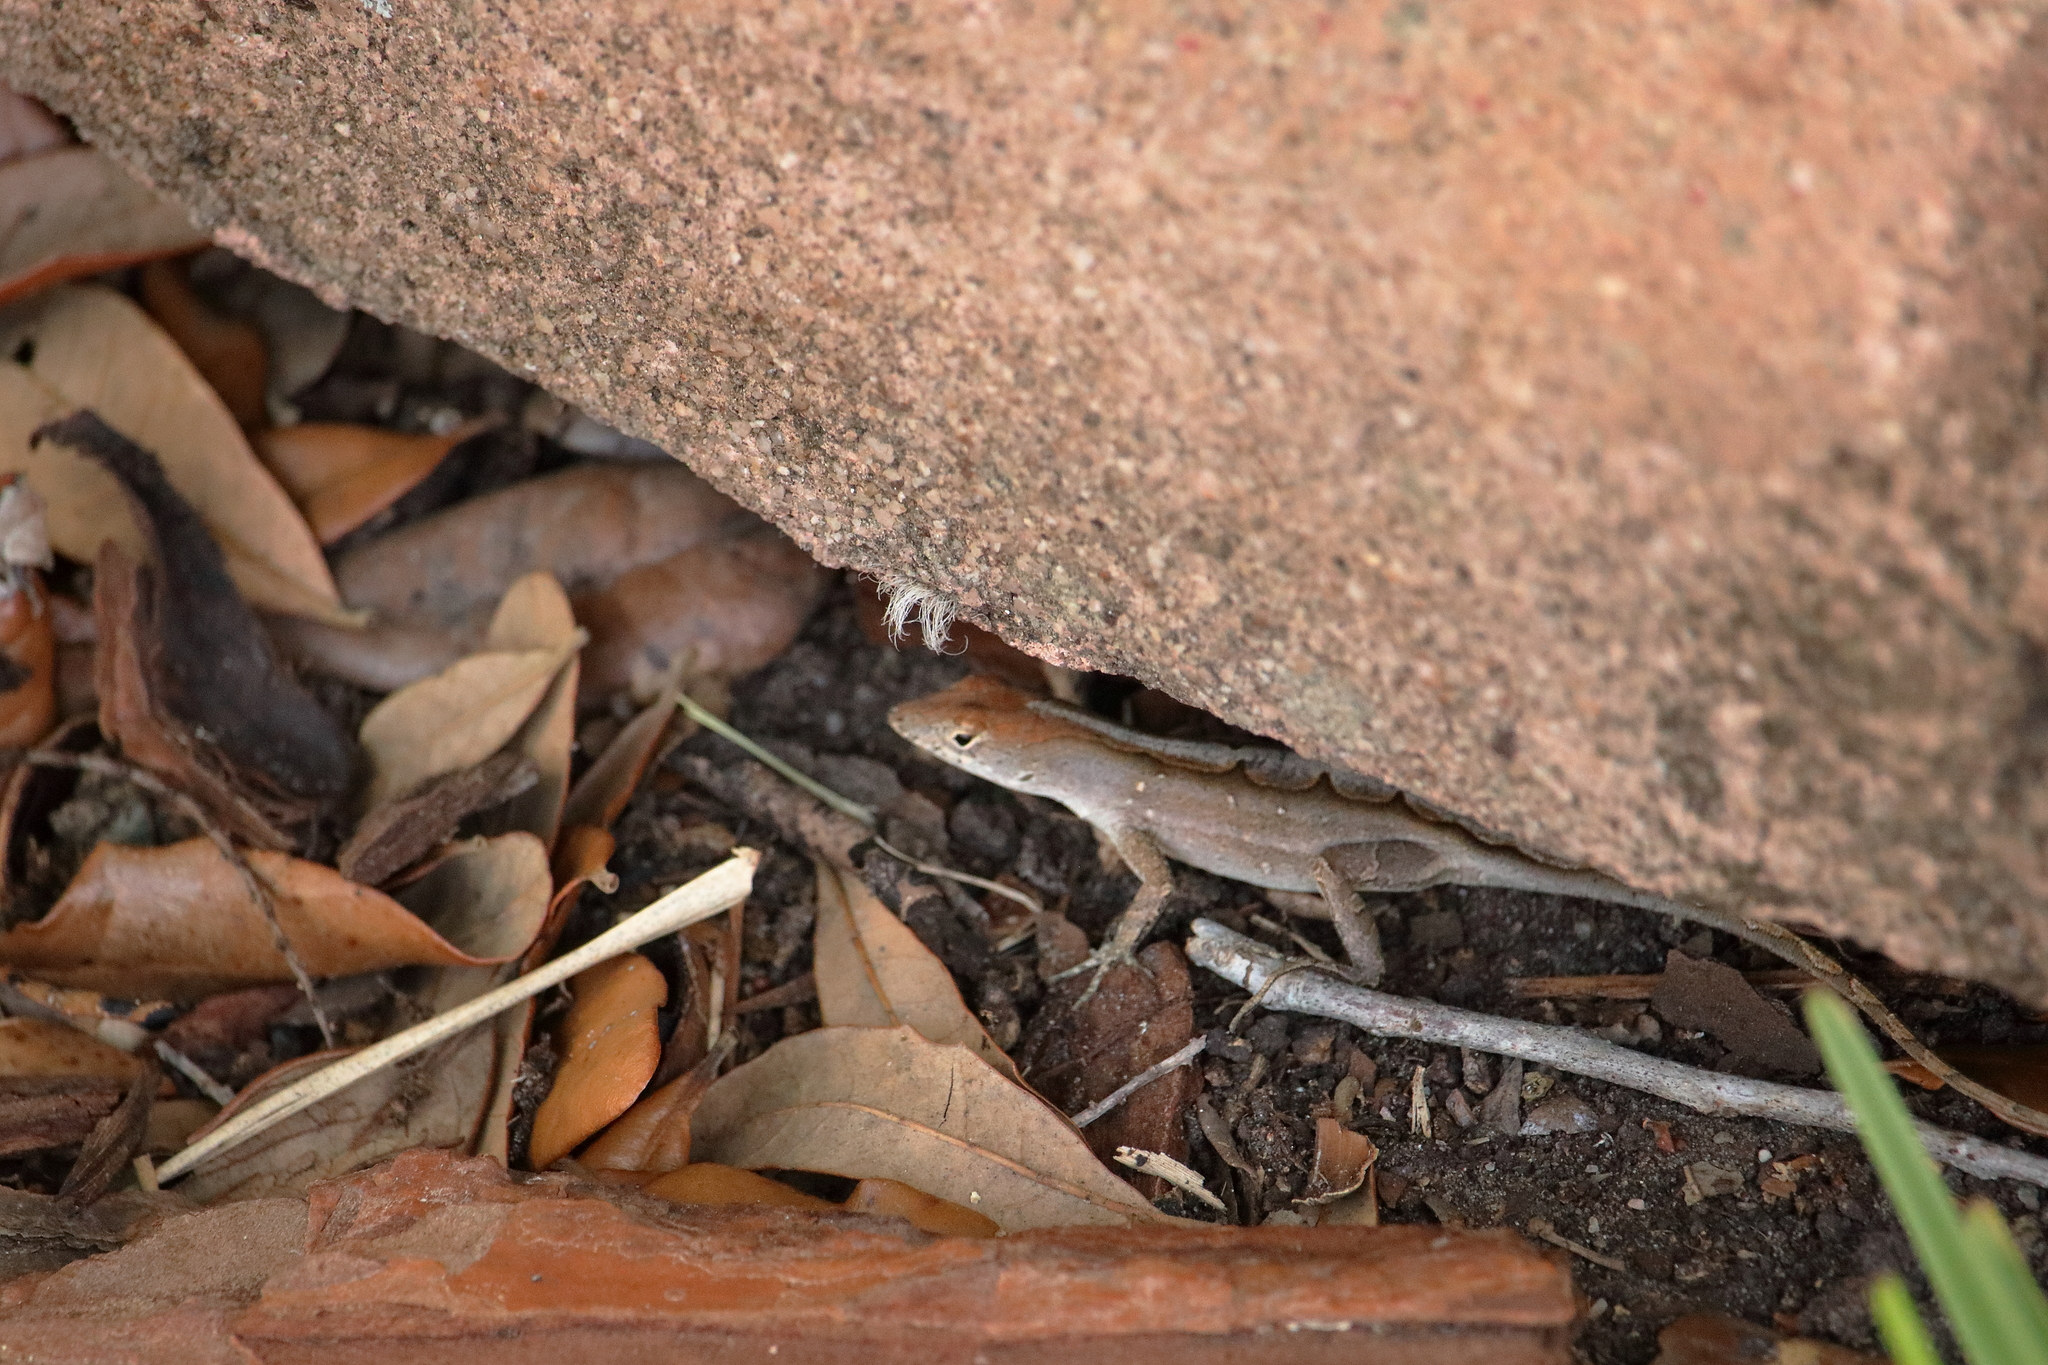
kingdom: Animalia
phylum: Chordata
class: Squamata
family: Dactyloidae
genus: Anolis
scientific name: Anolis sagrei
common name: Brown anole
